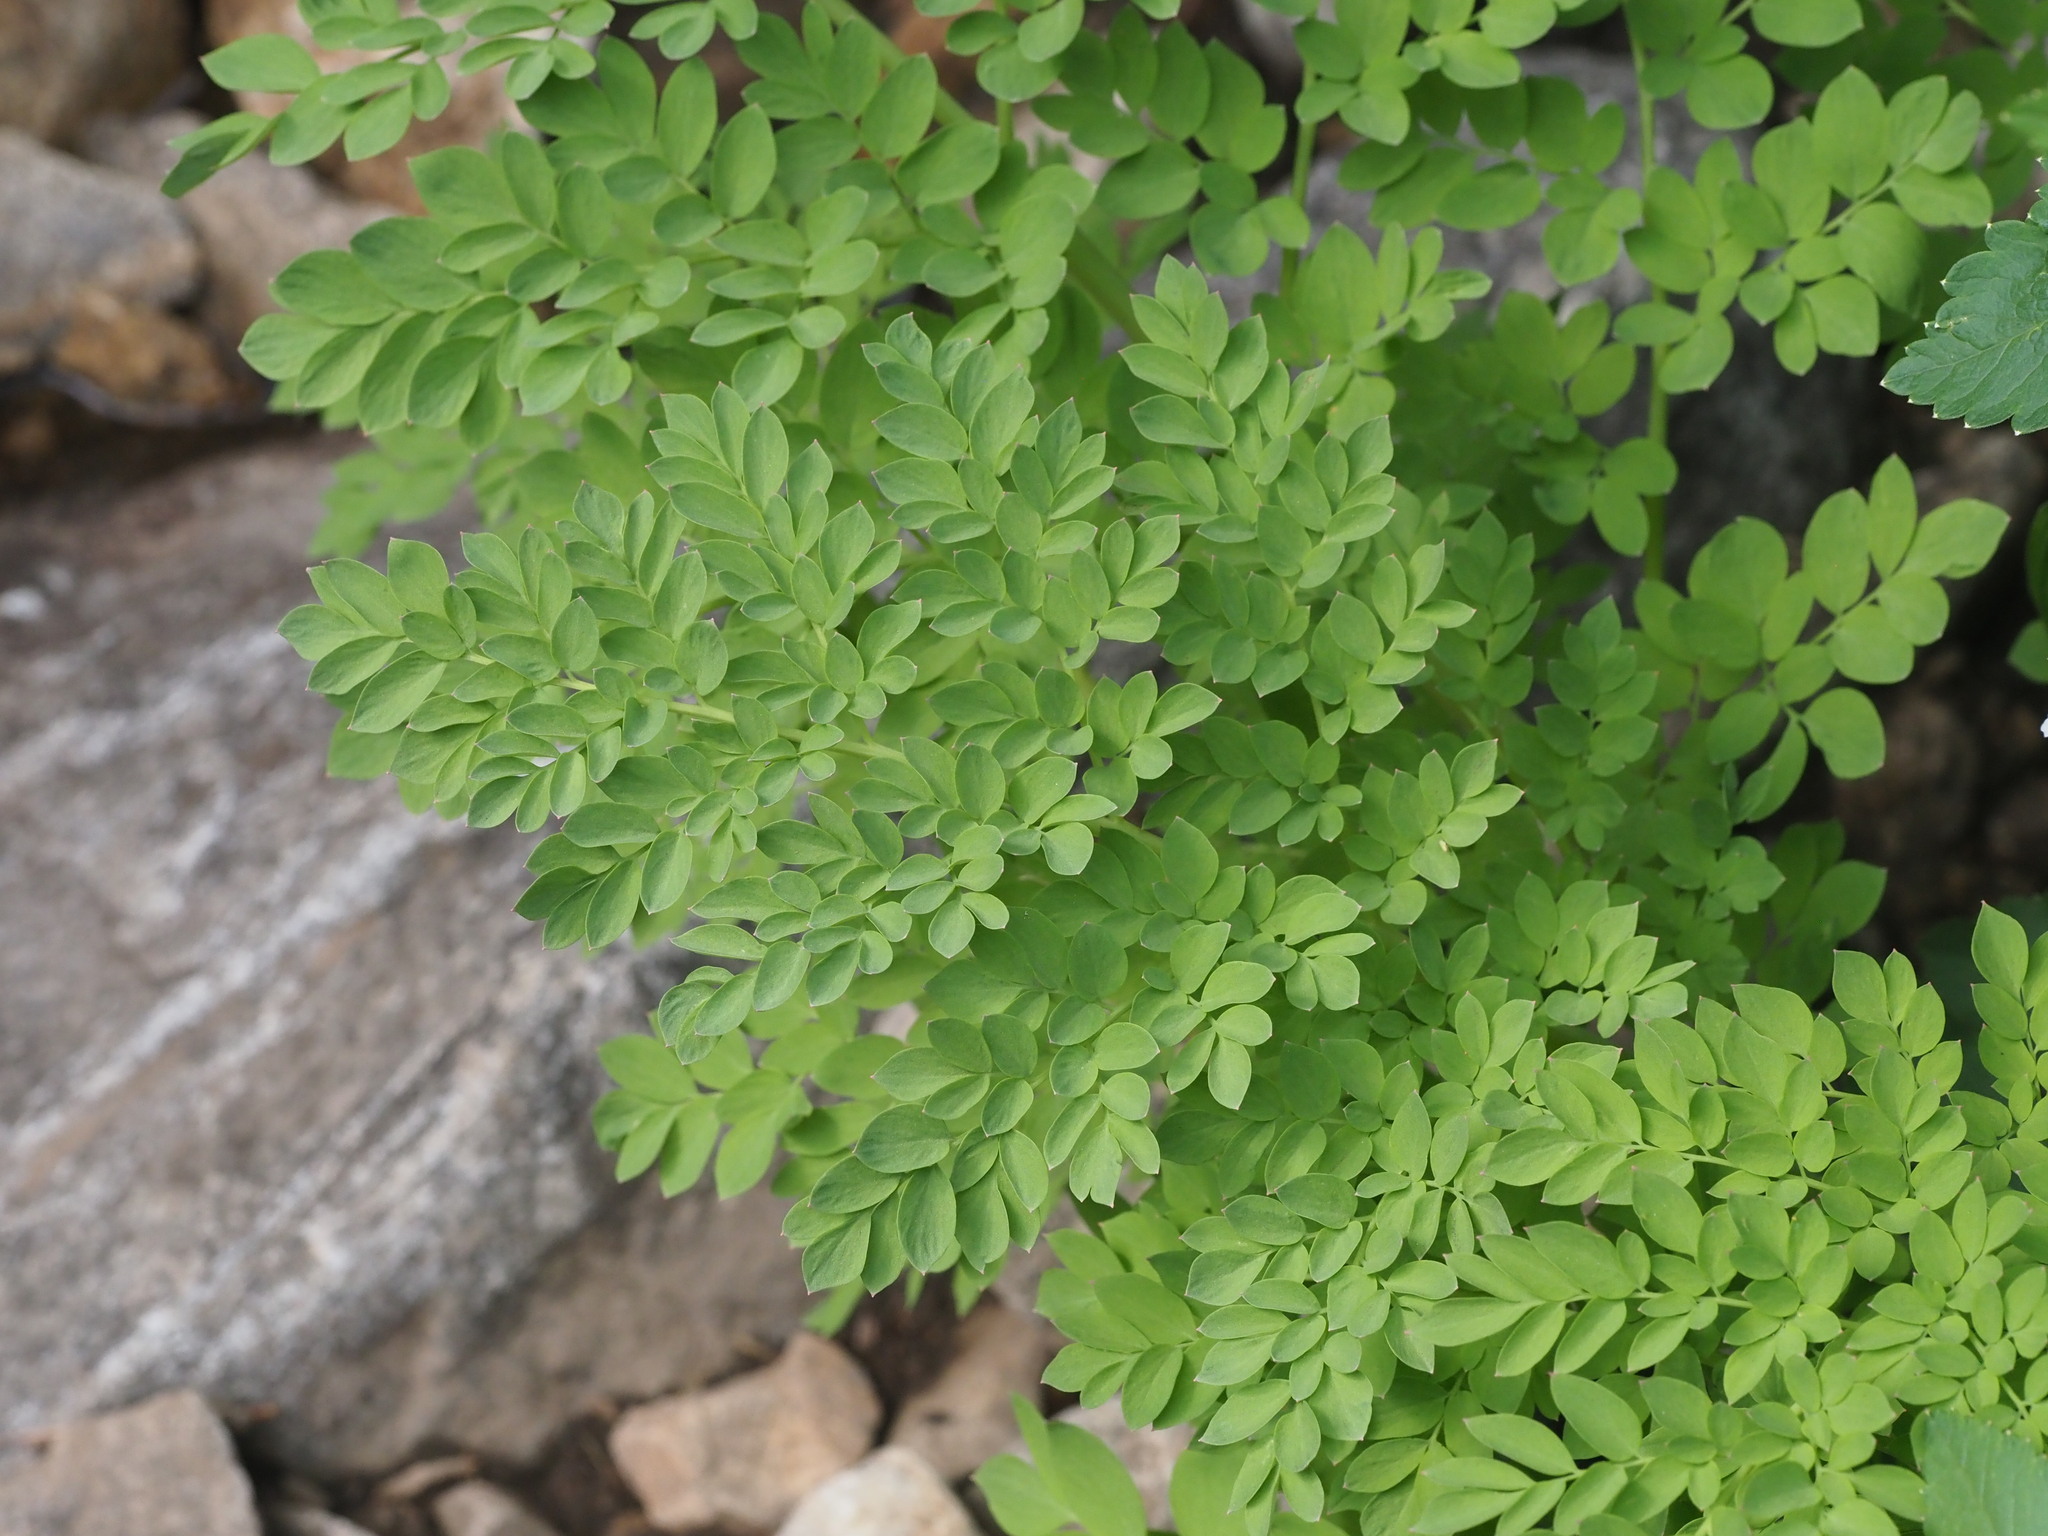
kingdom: Plantae
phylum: Tracheophyta
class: Magnoliopsida
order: Ranunculales
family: Papaveraceae
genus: Corydalis
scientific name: Corydalis caseana
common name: Fitweed
